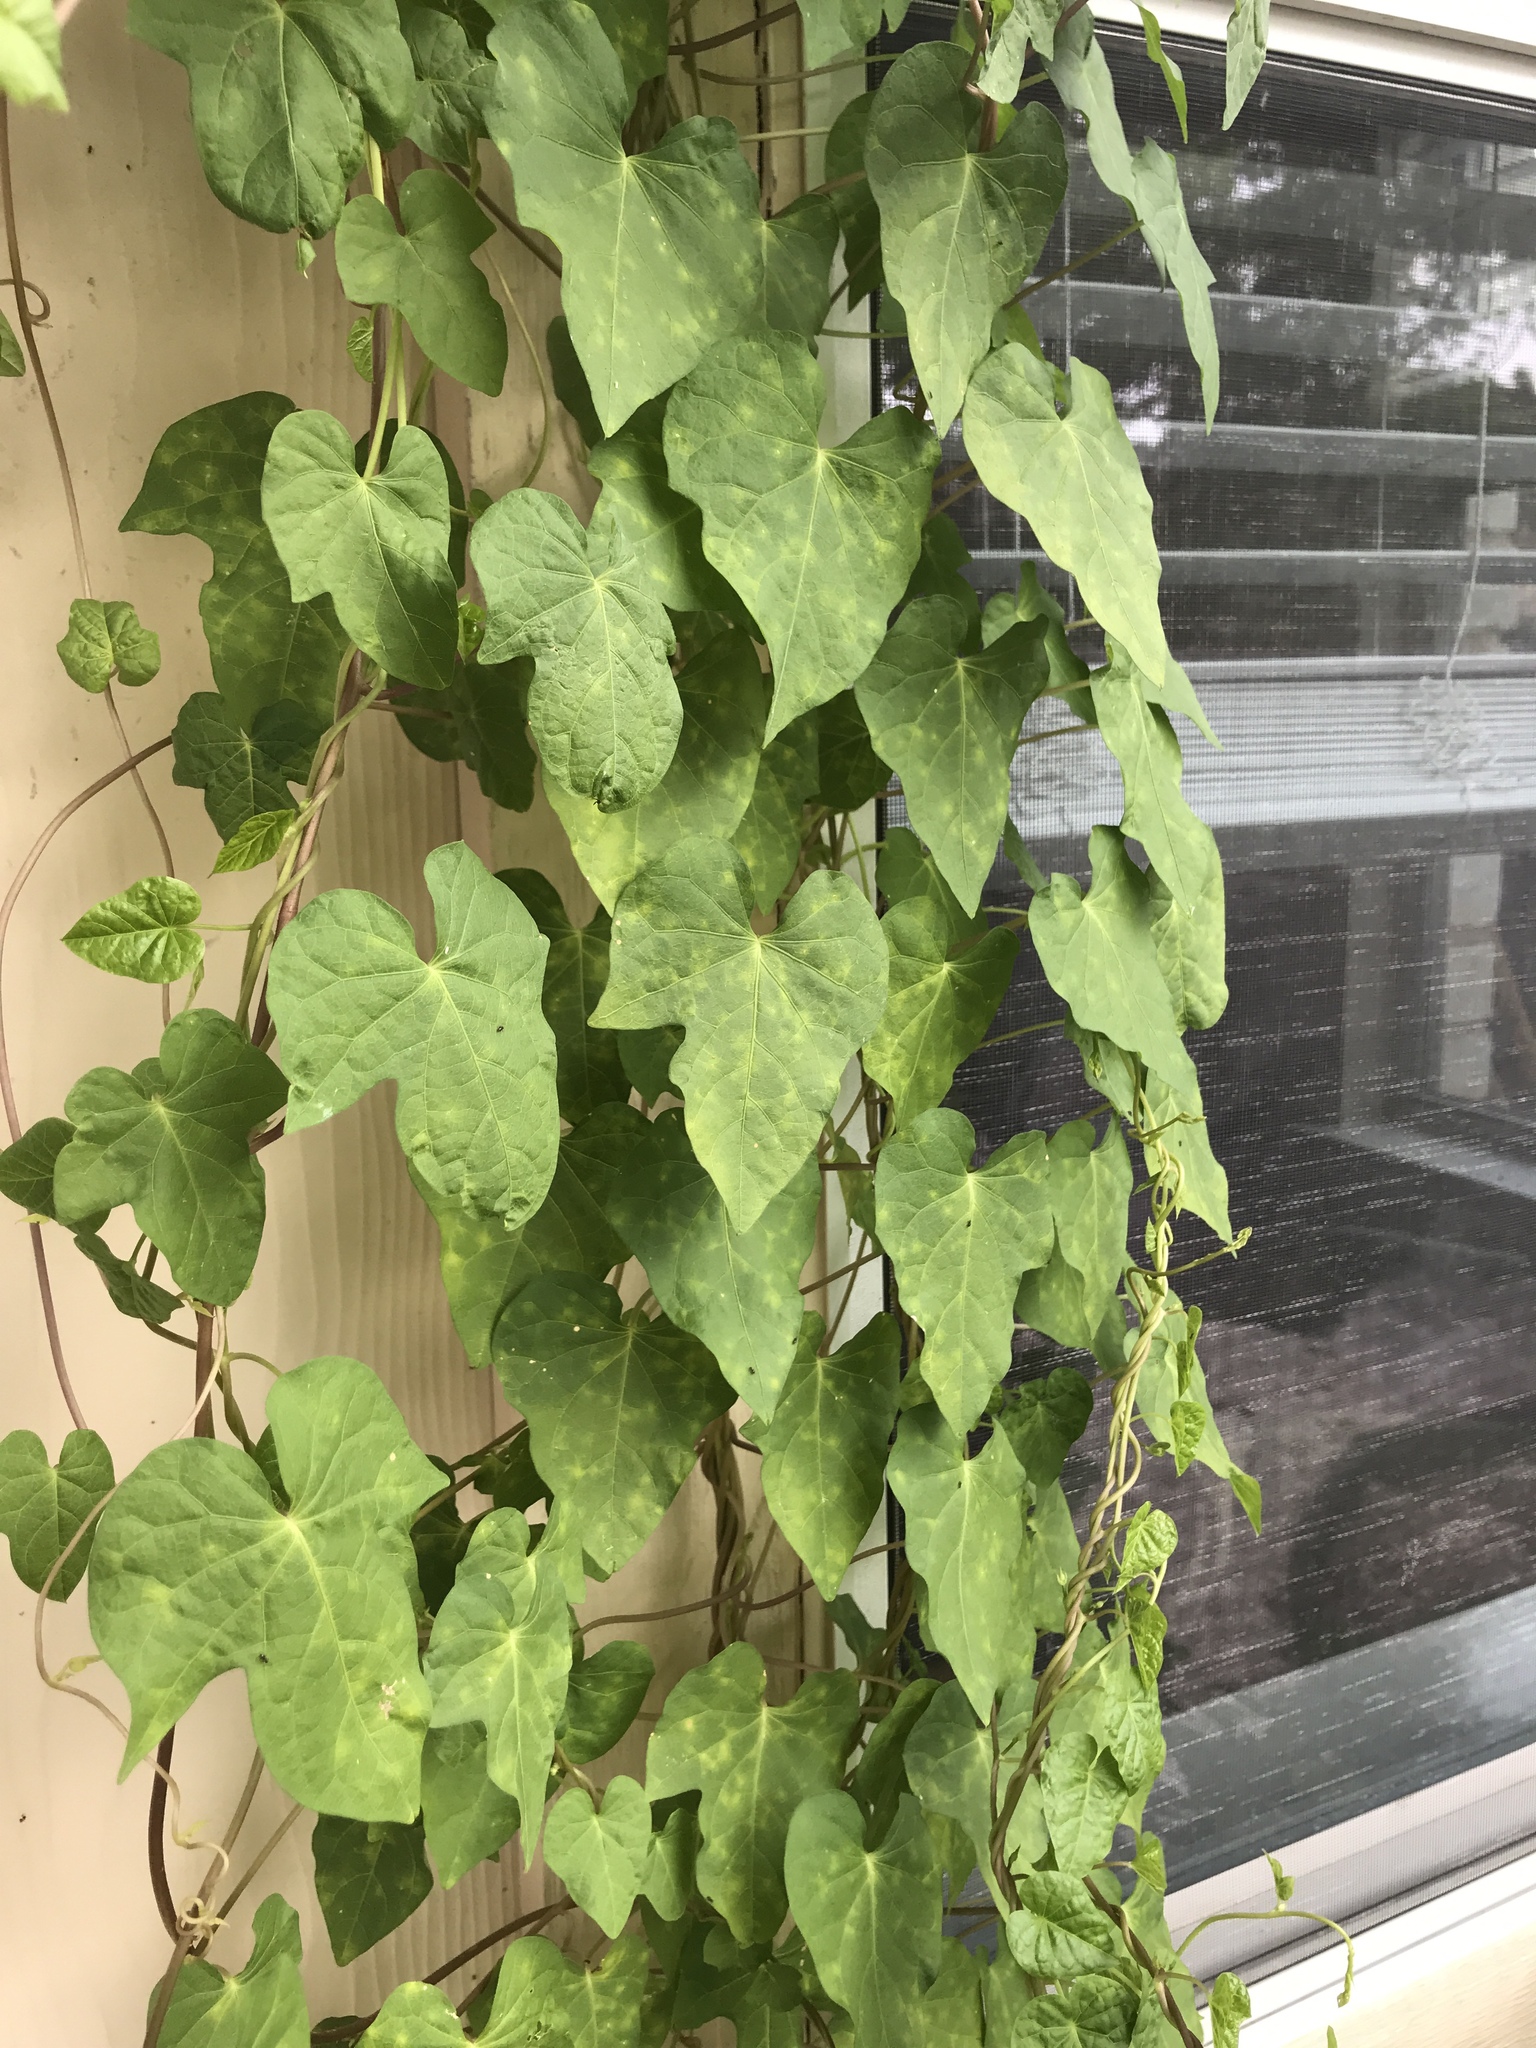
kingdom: Plantae
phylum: Tracheophyta
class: Magnoliopsida
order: Solanales
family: Convolvulaceae
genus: Ipomoea
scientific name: Ipomoea cordatotriloba
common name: Cotton morning glory
